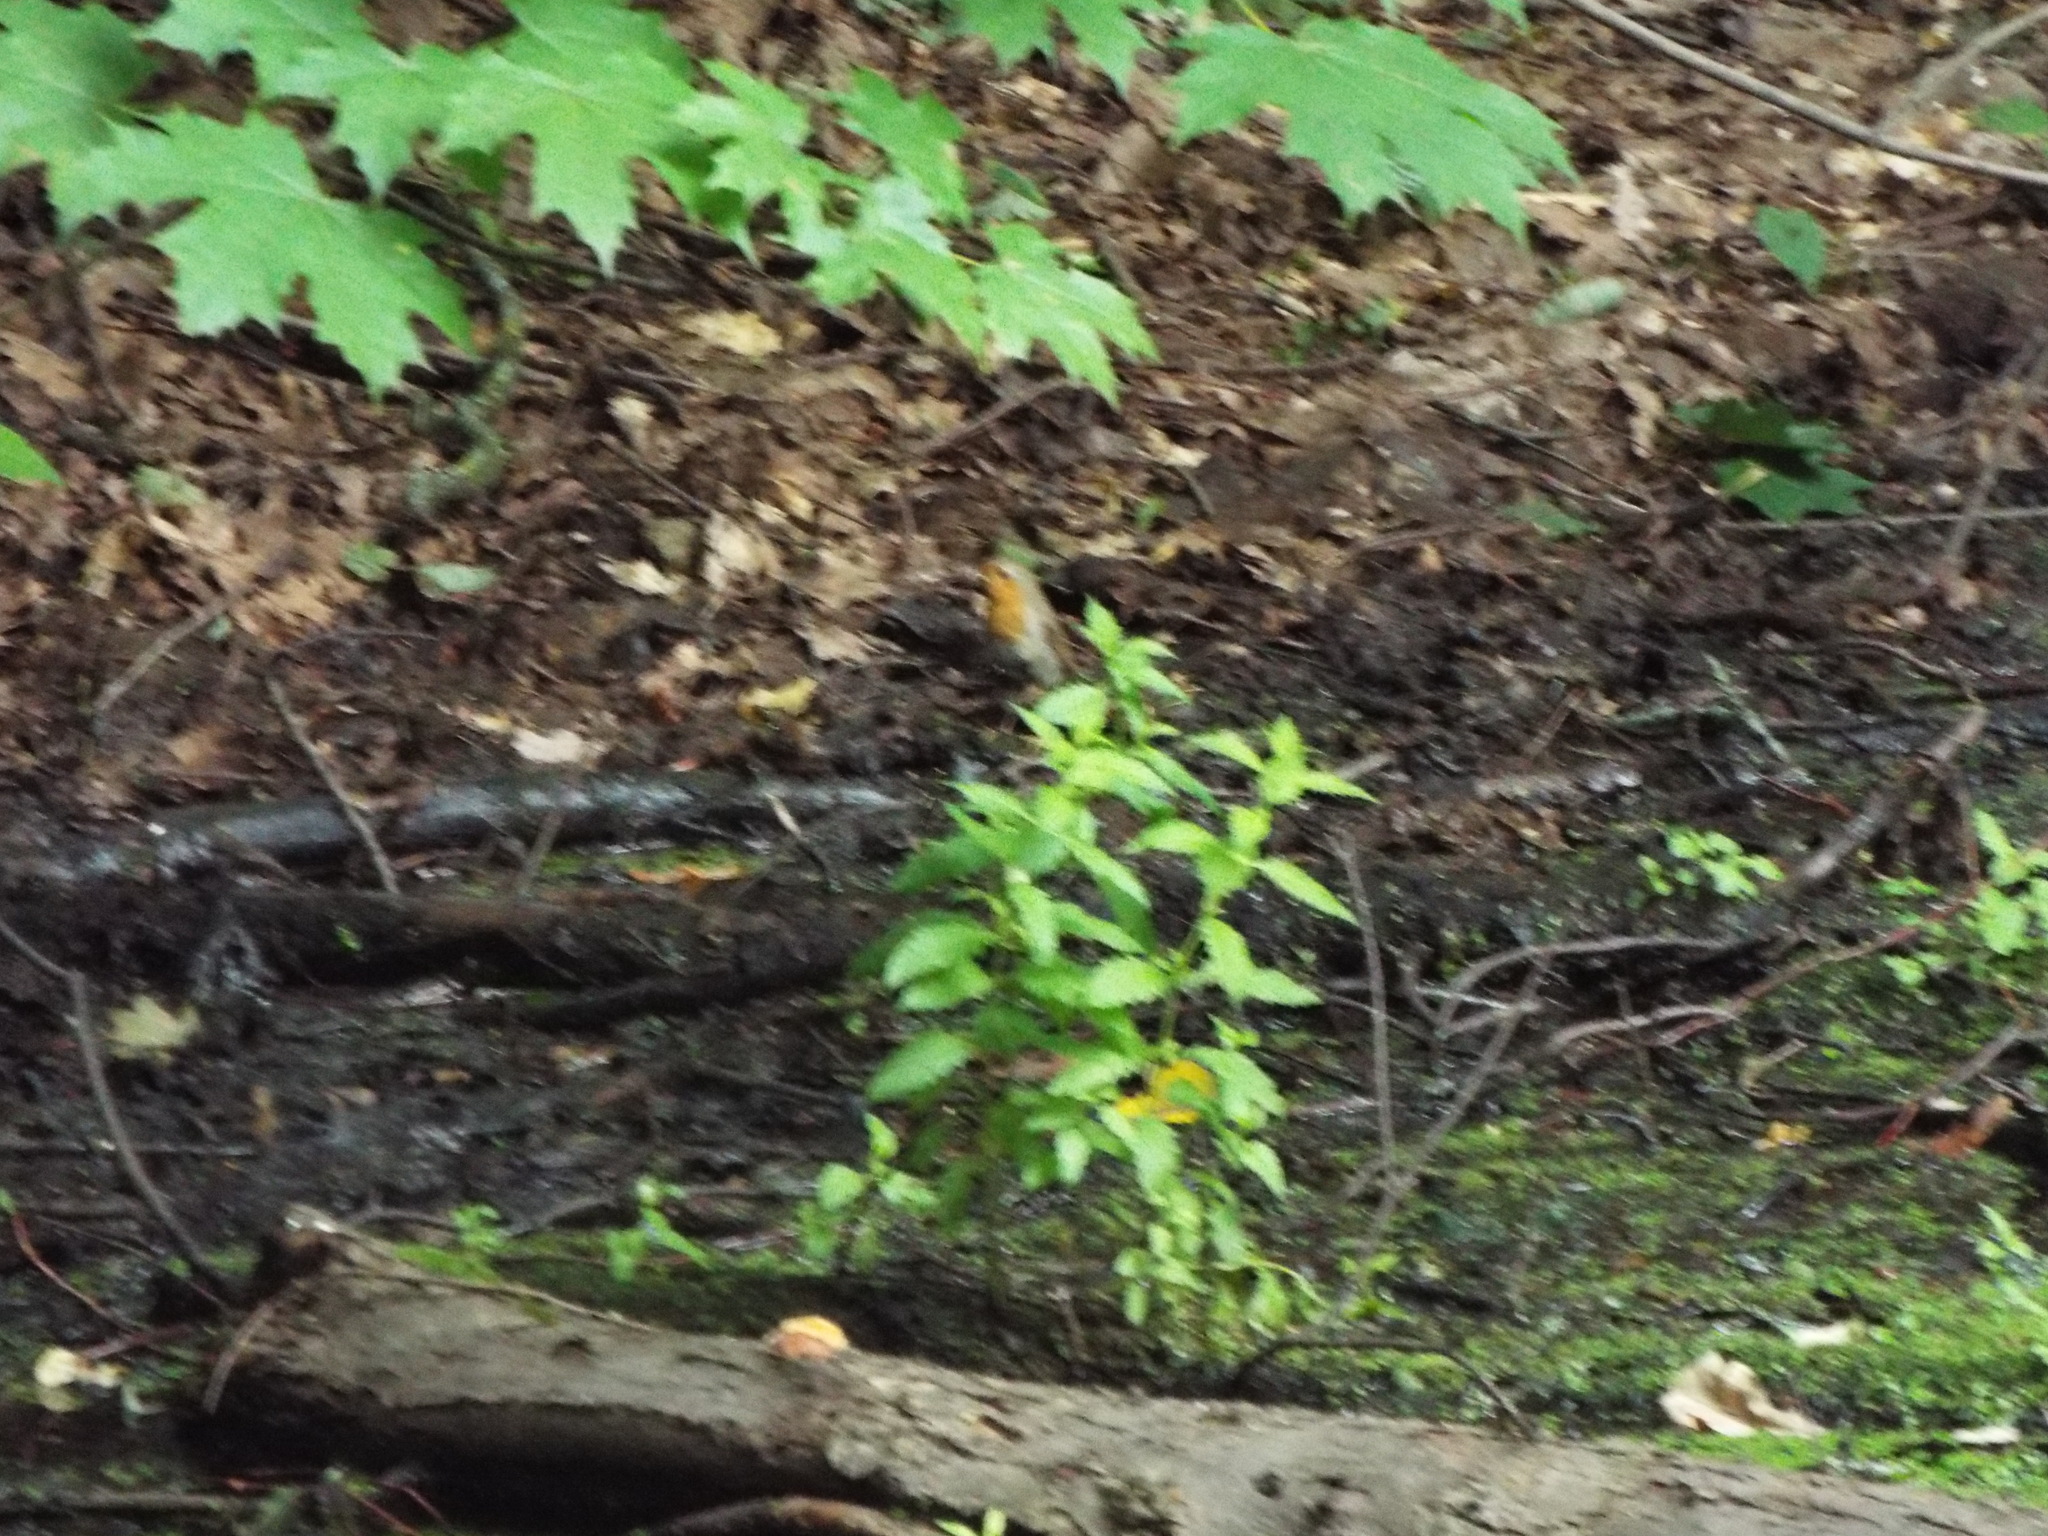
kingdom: Animalia
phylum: Chordata
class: Aves
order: Passeriformes
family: Muscicapidae
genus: Erithacus
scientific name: Erithacus rubecula
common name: European robin
